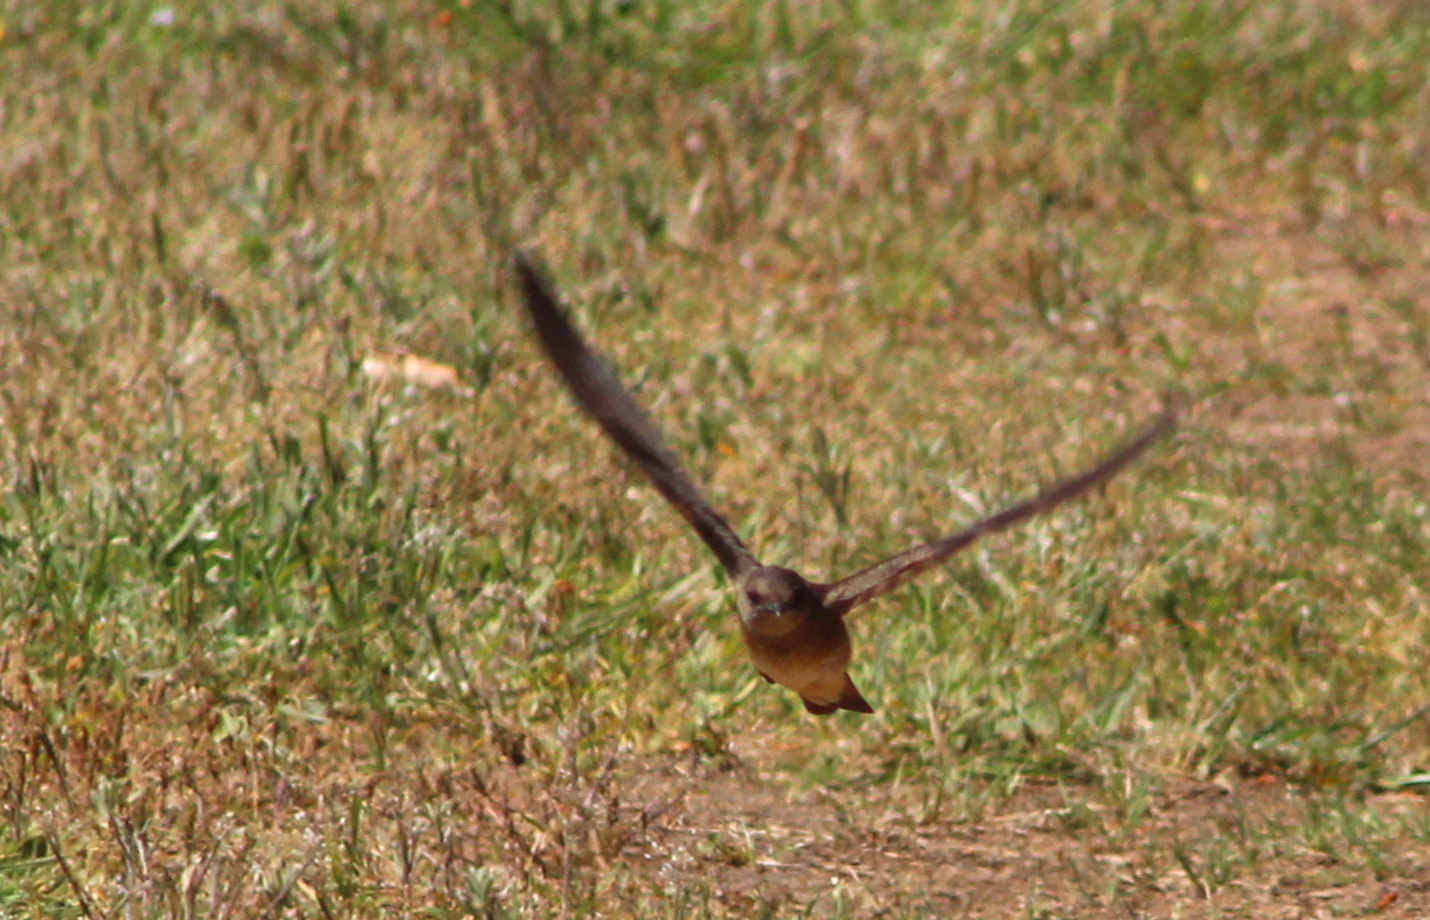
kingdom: Animalia
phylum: Chordata
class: Aves
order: Passeriformes
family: Hirundinidae
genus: Stelgidopteryx
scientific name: Stelgidopteryx serripennis
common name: Northern rough-winged swallow
